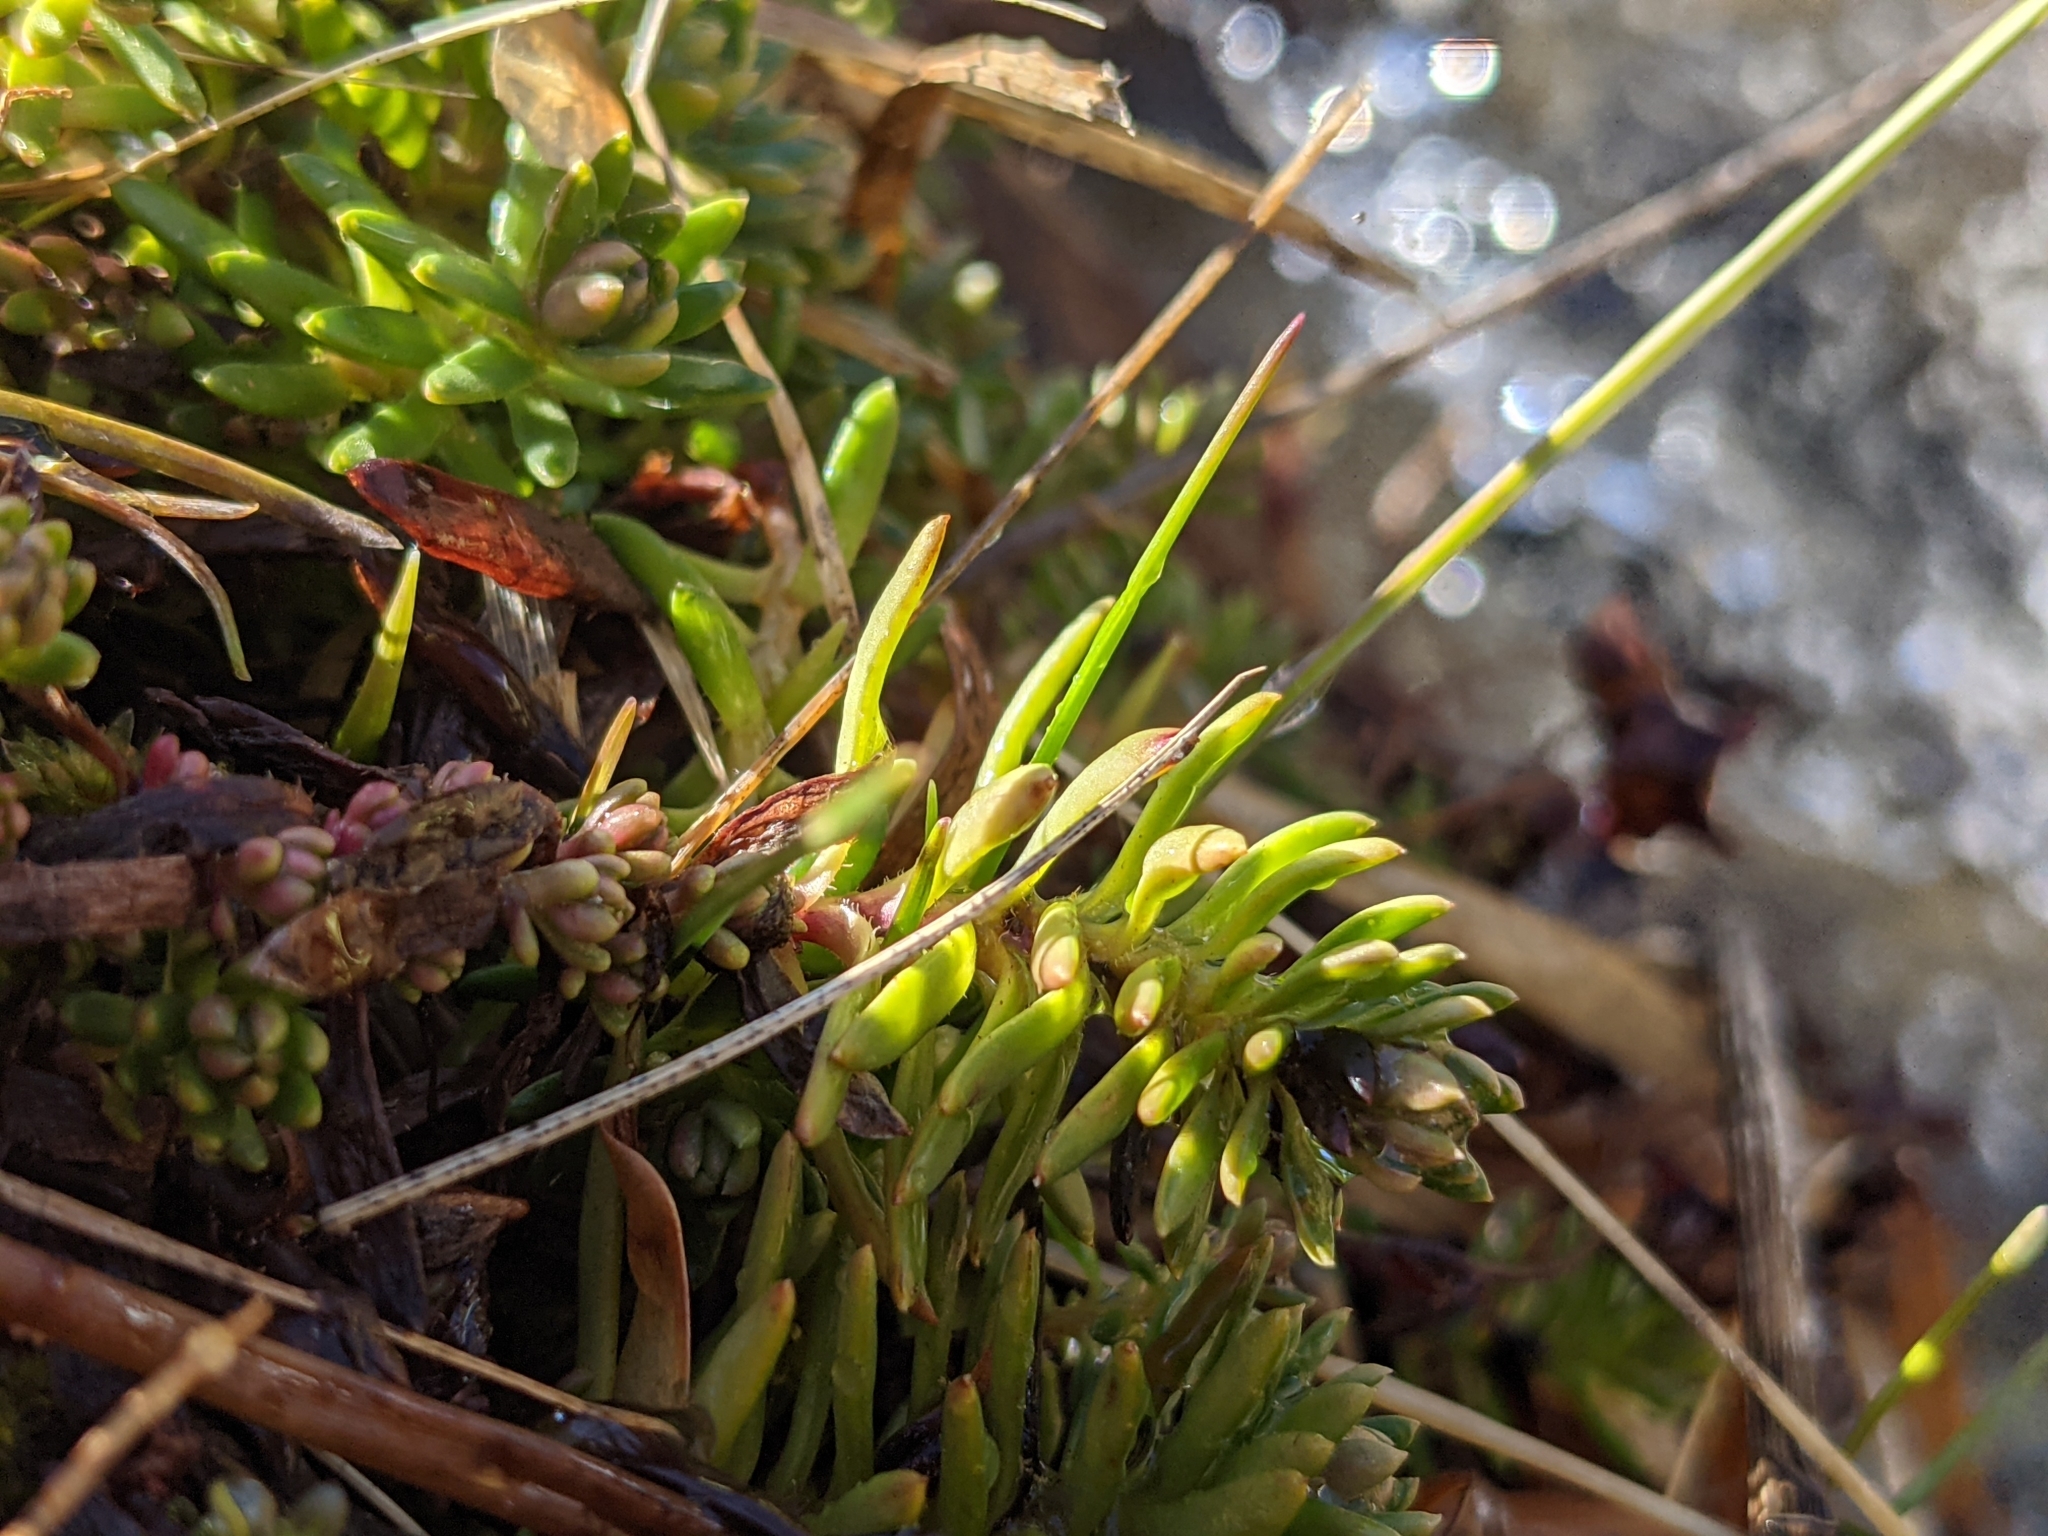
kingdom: Plantae
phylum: Tracheophyta
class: Magnoliopsida
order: Saxifragales
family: Saxifragaceae
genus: Saxifraga
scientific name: Saxifraga aizoides
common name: Yellow mountain saxifrage
